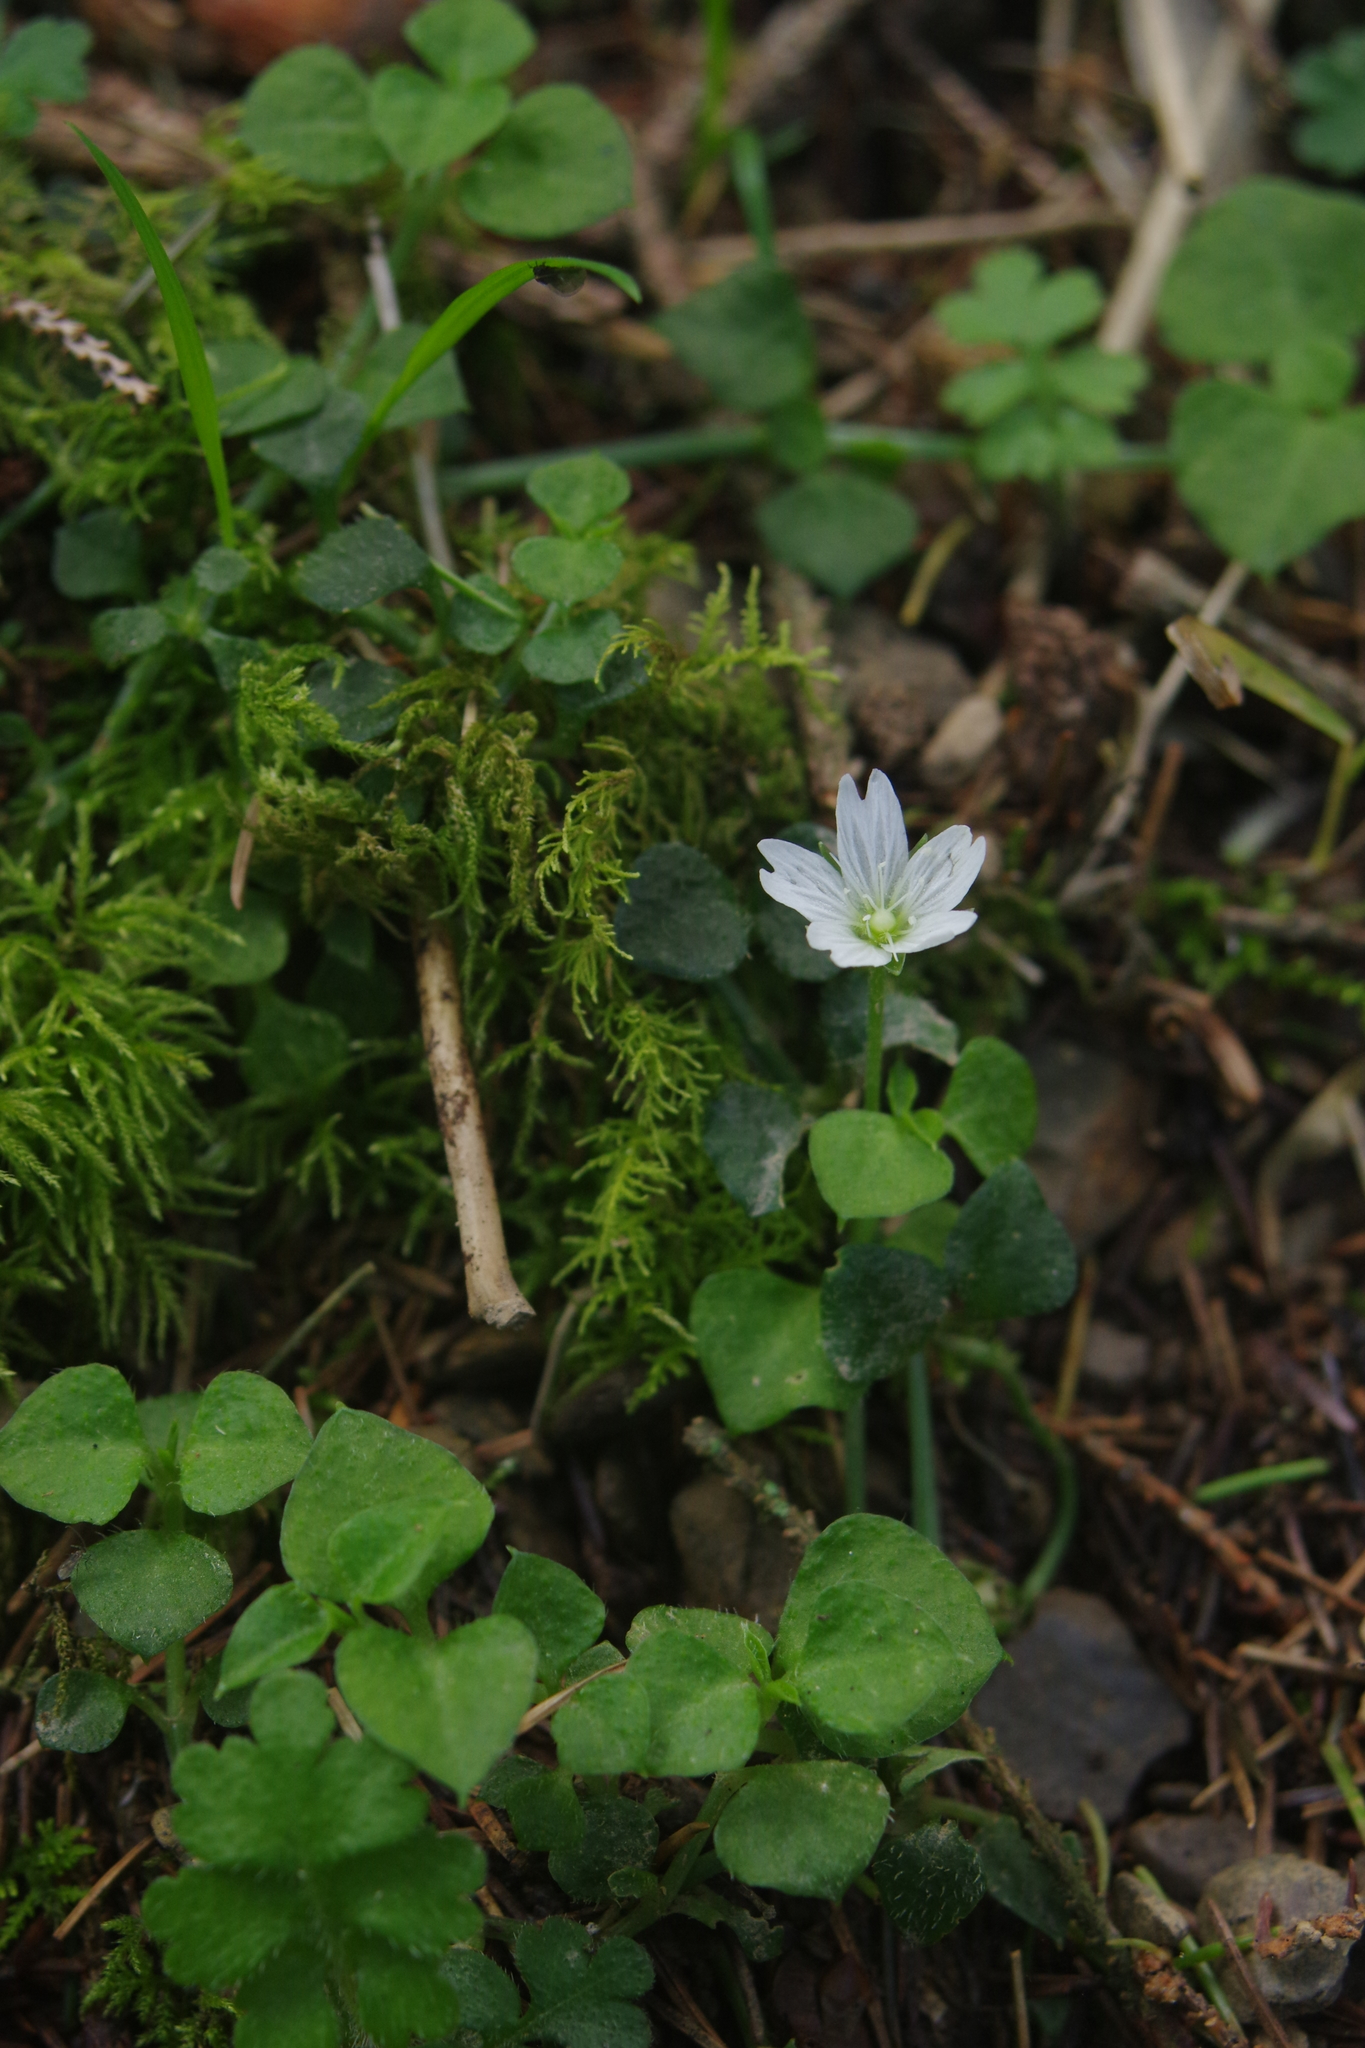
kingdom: Plantae
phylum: Tracheophyta
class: Magnoliopsida
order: Caryophyllales
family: Caryophyllaceae
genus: Nubelaria
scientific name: Nubelaria arisanensis
